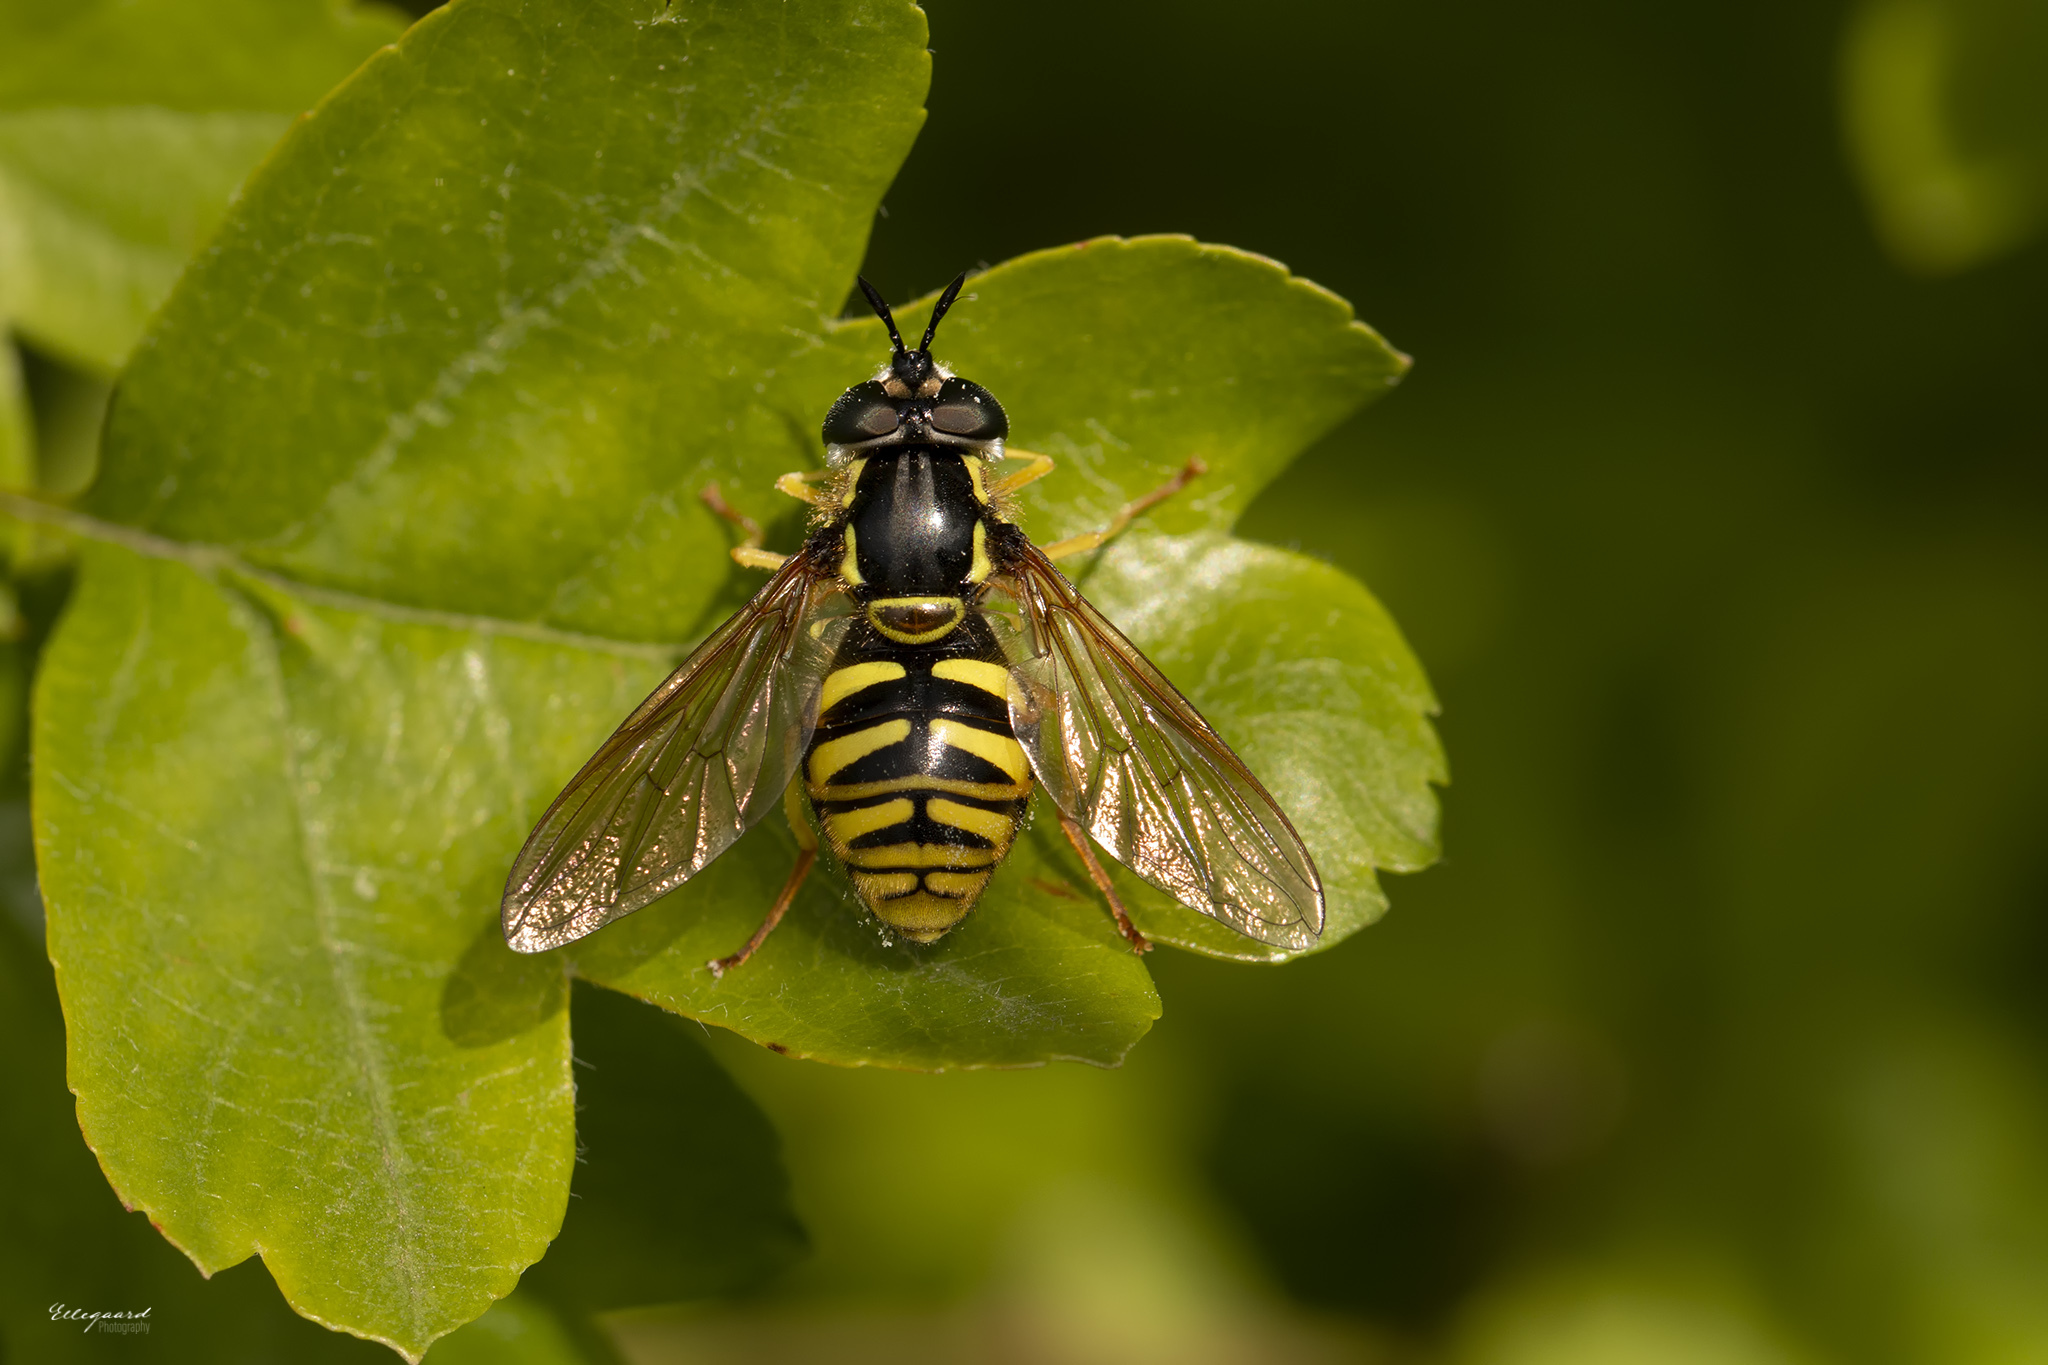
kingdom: Animalia
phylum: Arthropoda
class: Insecta
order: Diptera
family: Syrphidae
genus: Chrysotoxum
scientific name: Chrysotoxum cautum
